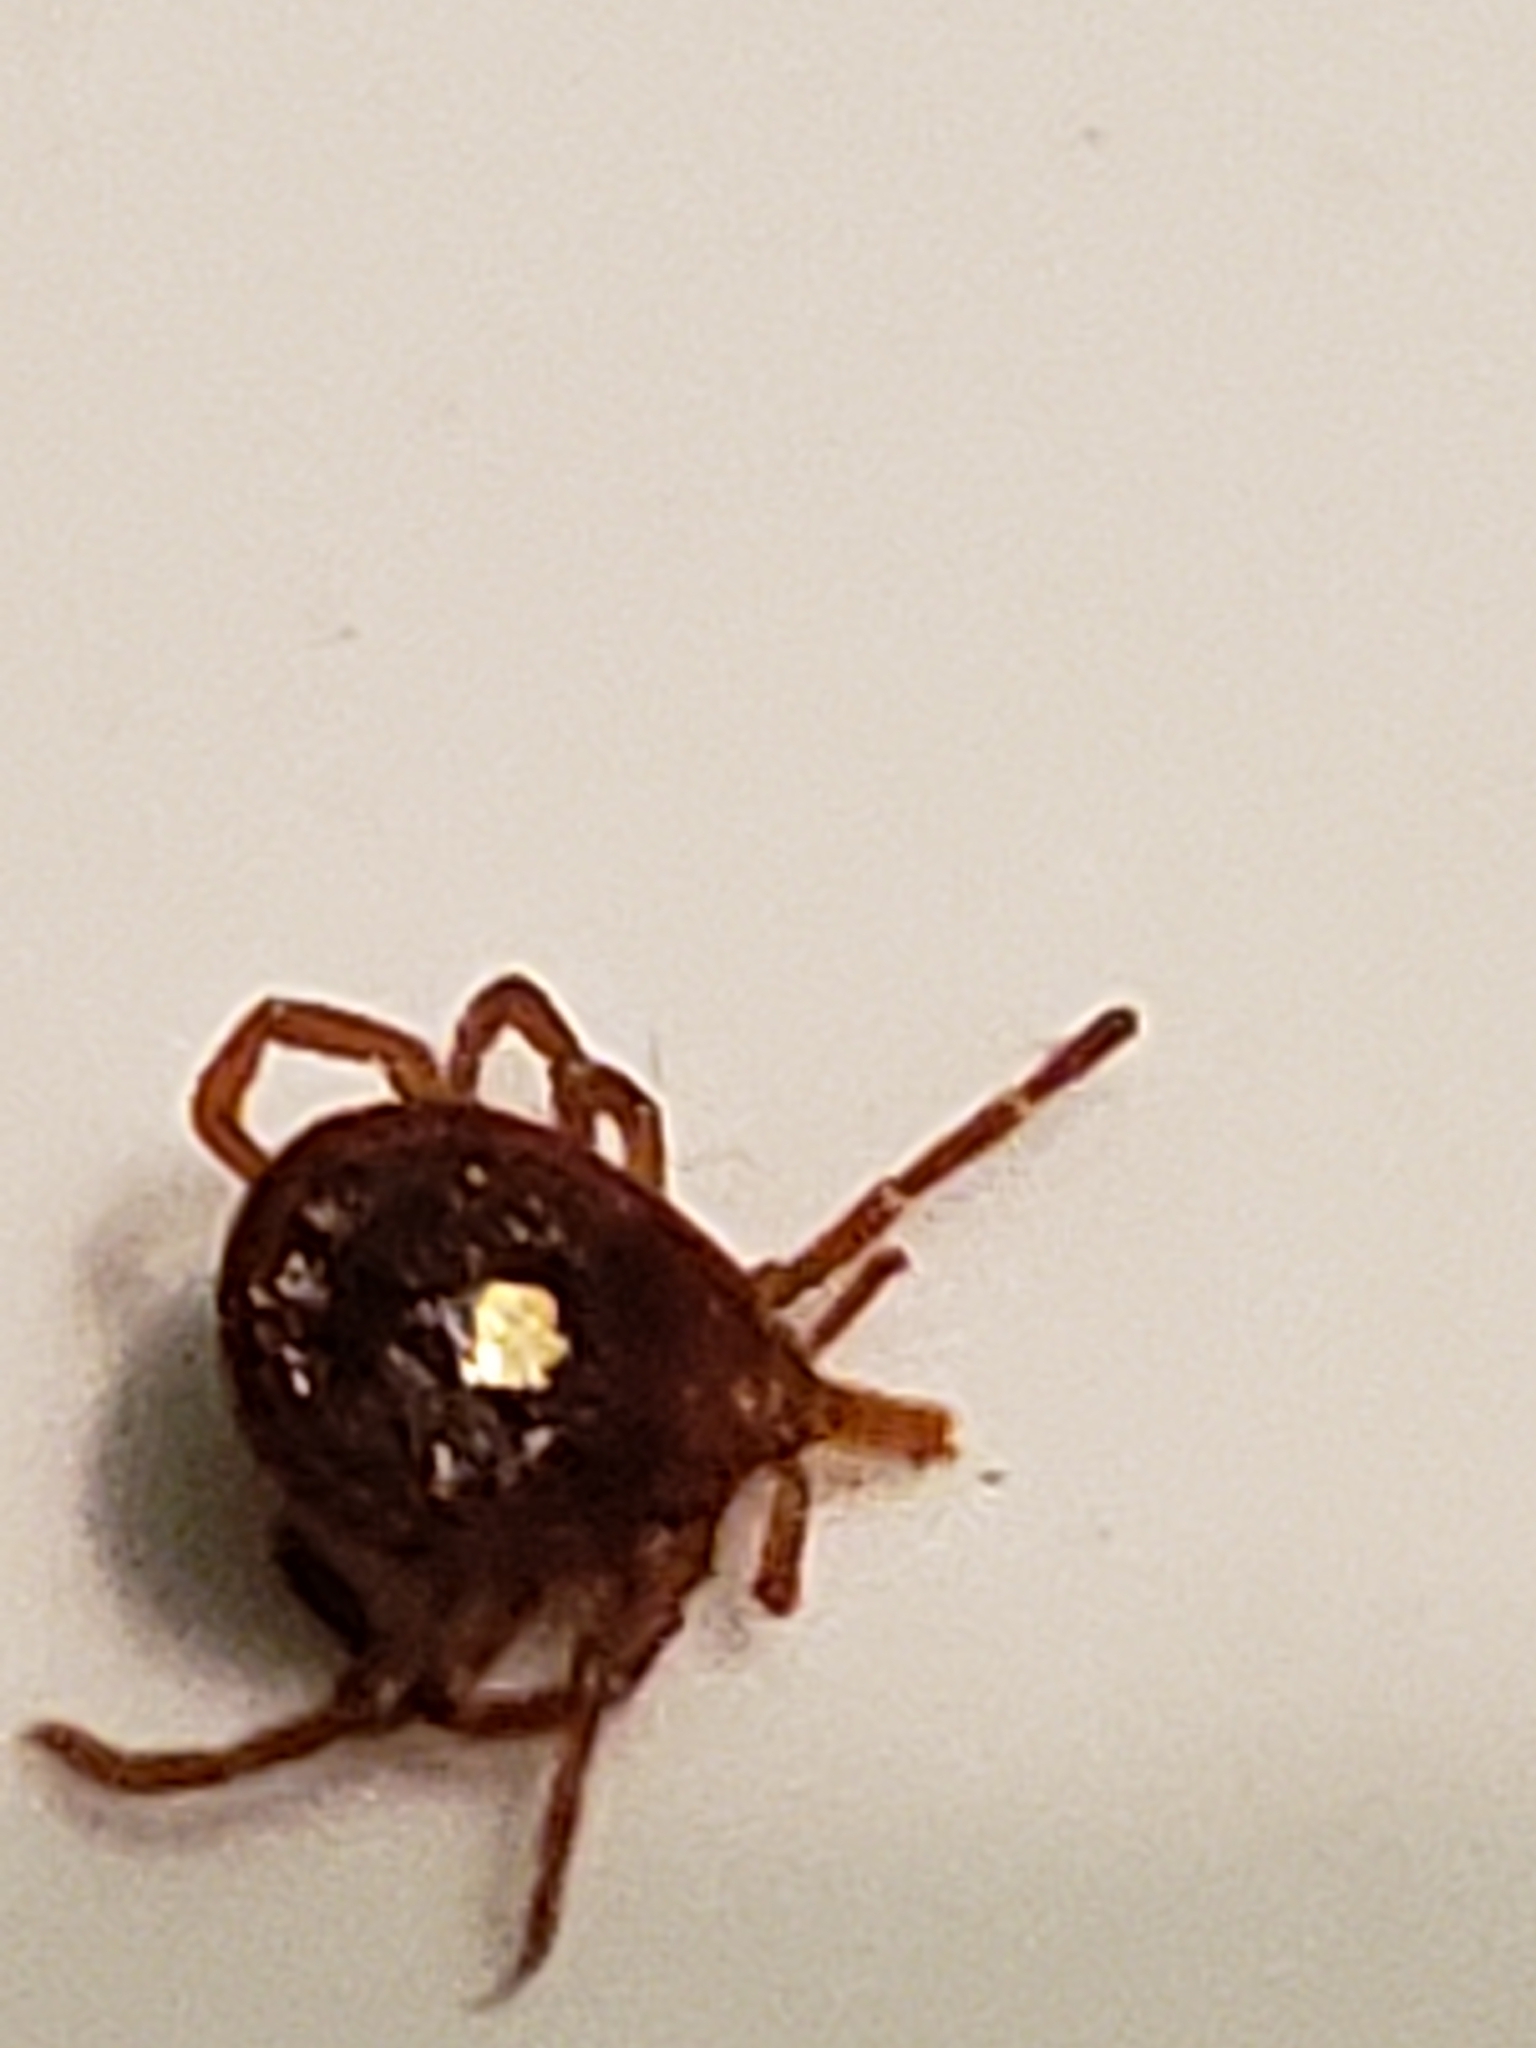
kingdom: Animalia
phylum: Arthropoda
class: Arachnida
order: Ixodida
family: Ixodidae
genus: Amblyomma
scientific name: Amblyomma americanum
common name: Lone star tick
